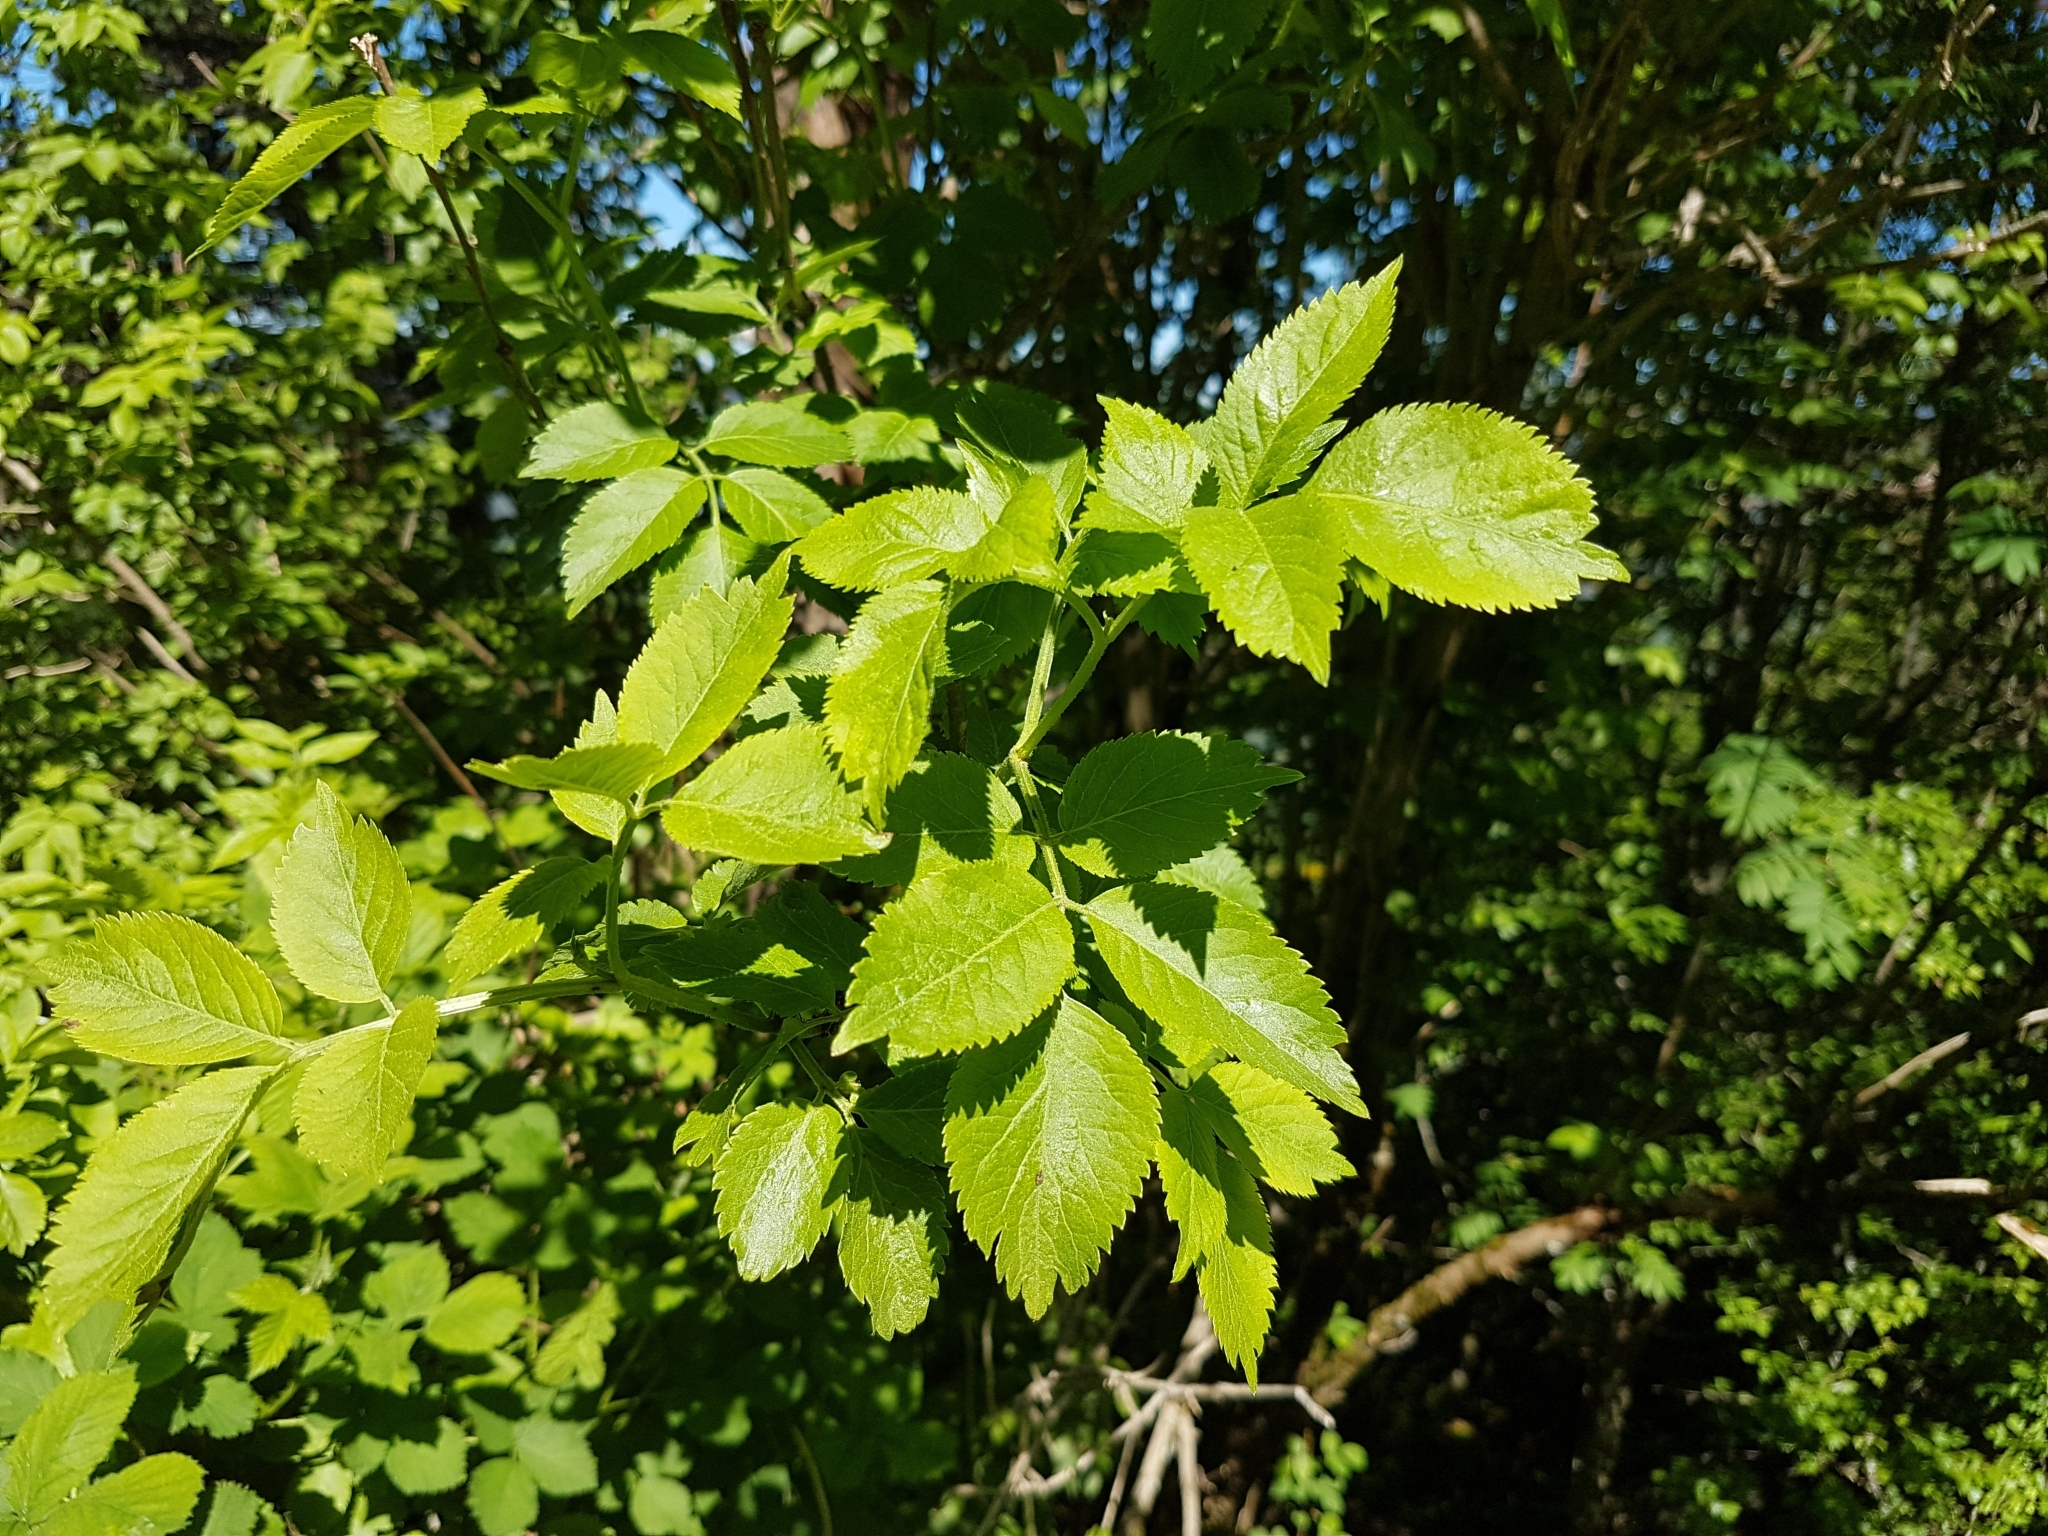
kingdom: Plantae
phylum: Tracheophyta
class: Magnoliopsida
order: Dipsacales
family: Viburnaceae
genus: Sambucus
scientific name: Sambucus nigra
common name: Elder
